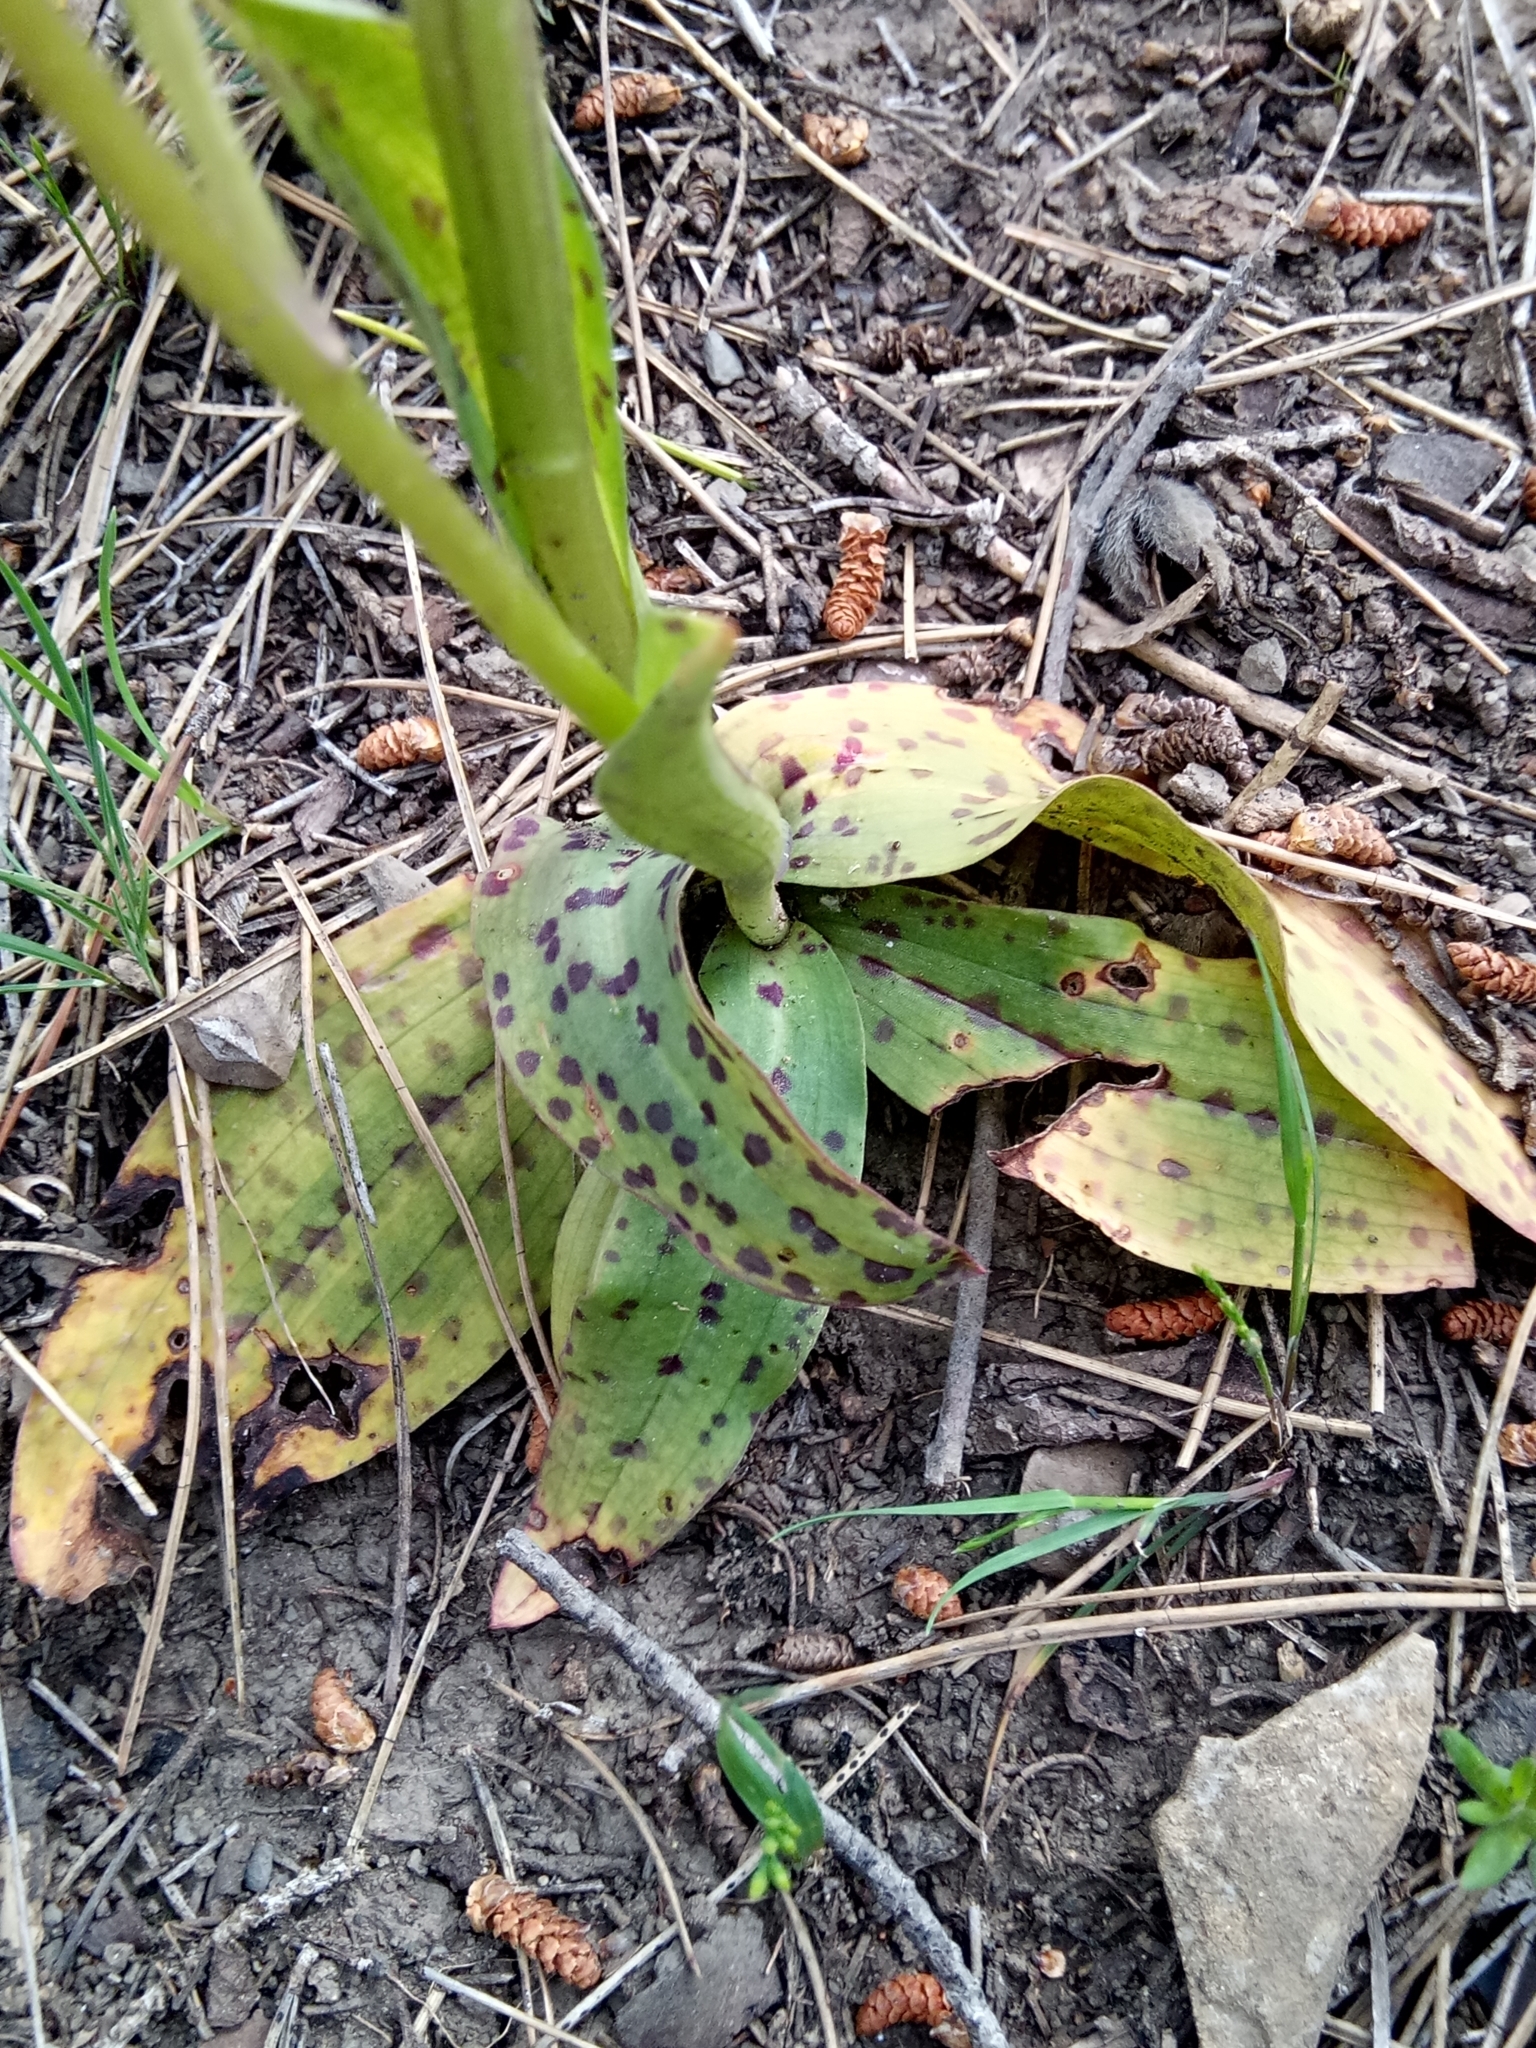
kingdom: Plantae
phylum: Tracheophyta
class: Liliopsida
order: Asparagales
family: Orchidaceae
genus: Neotinea
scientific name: Neotinea maculata
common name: Dense-flowered orchid
